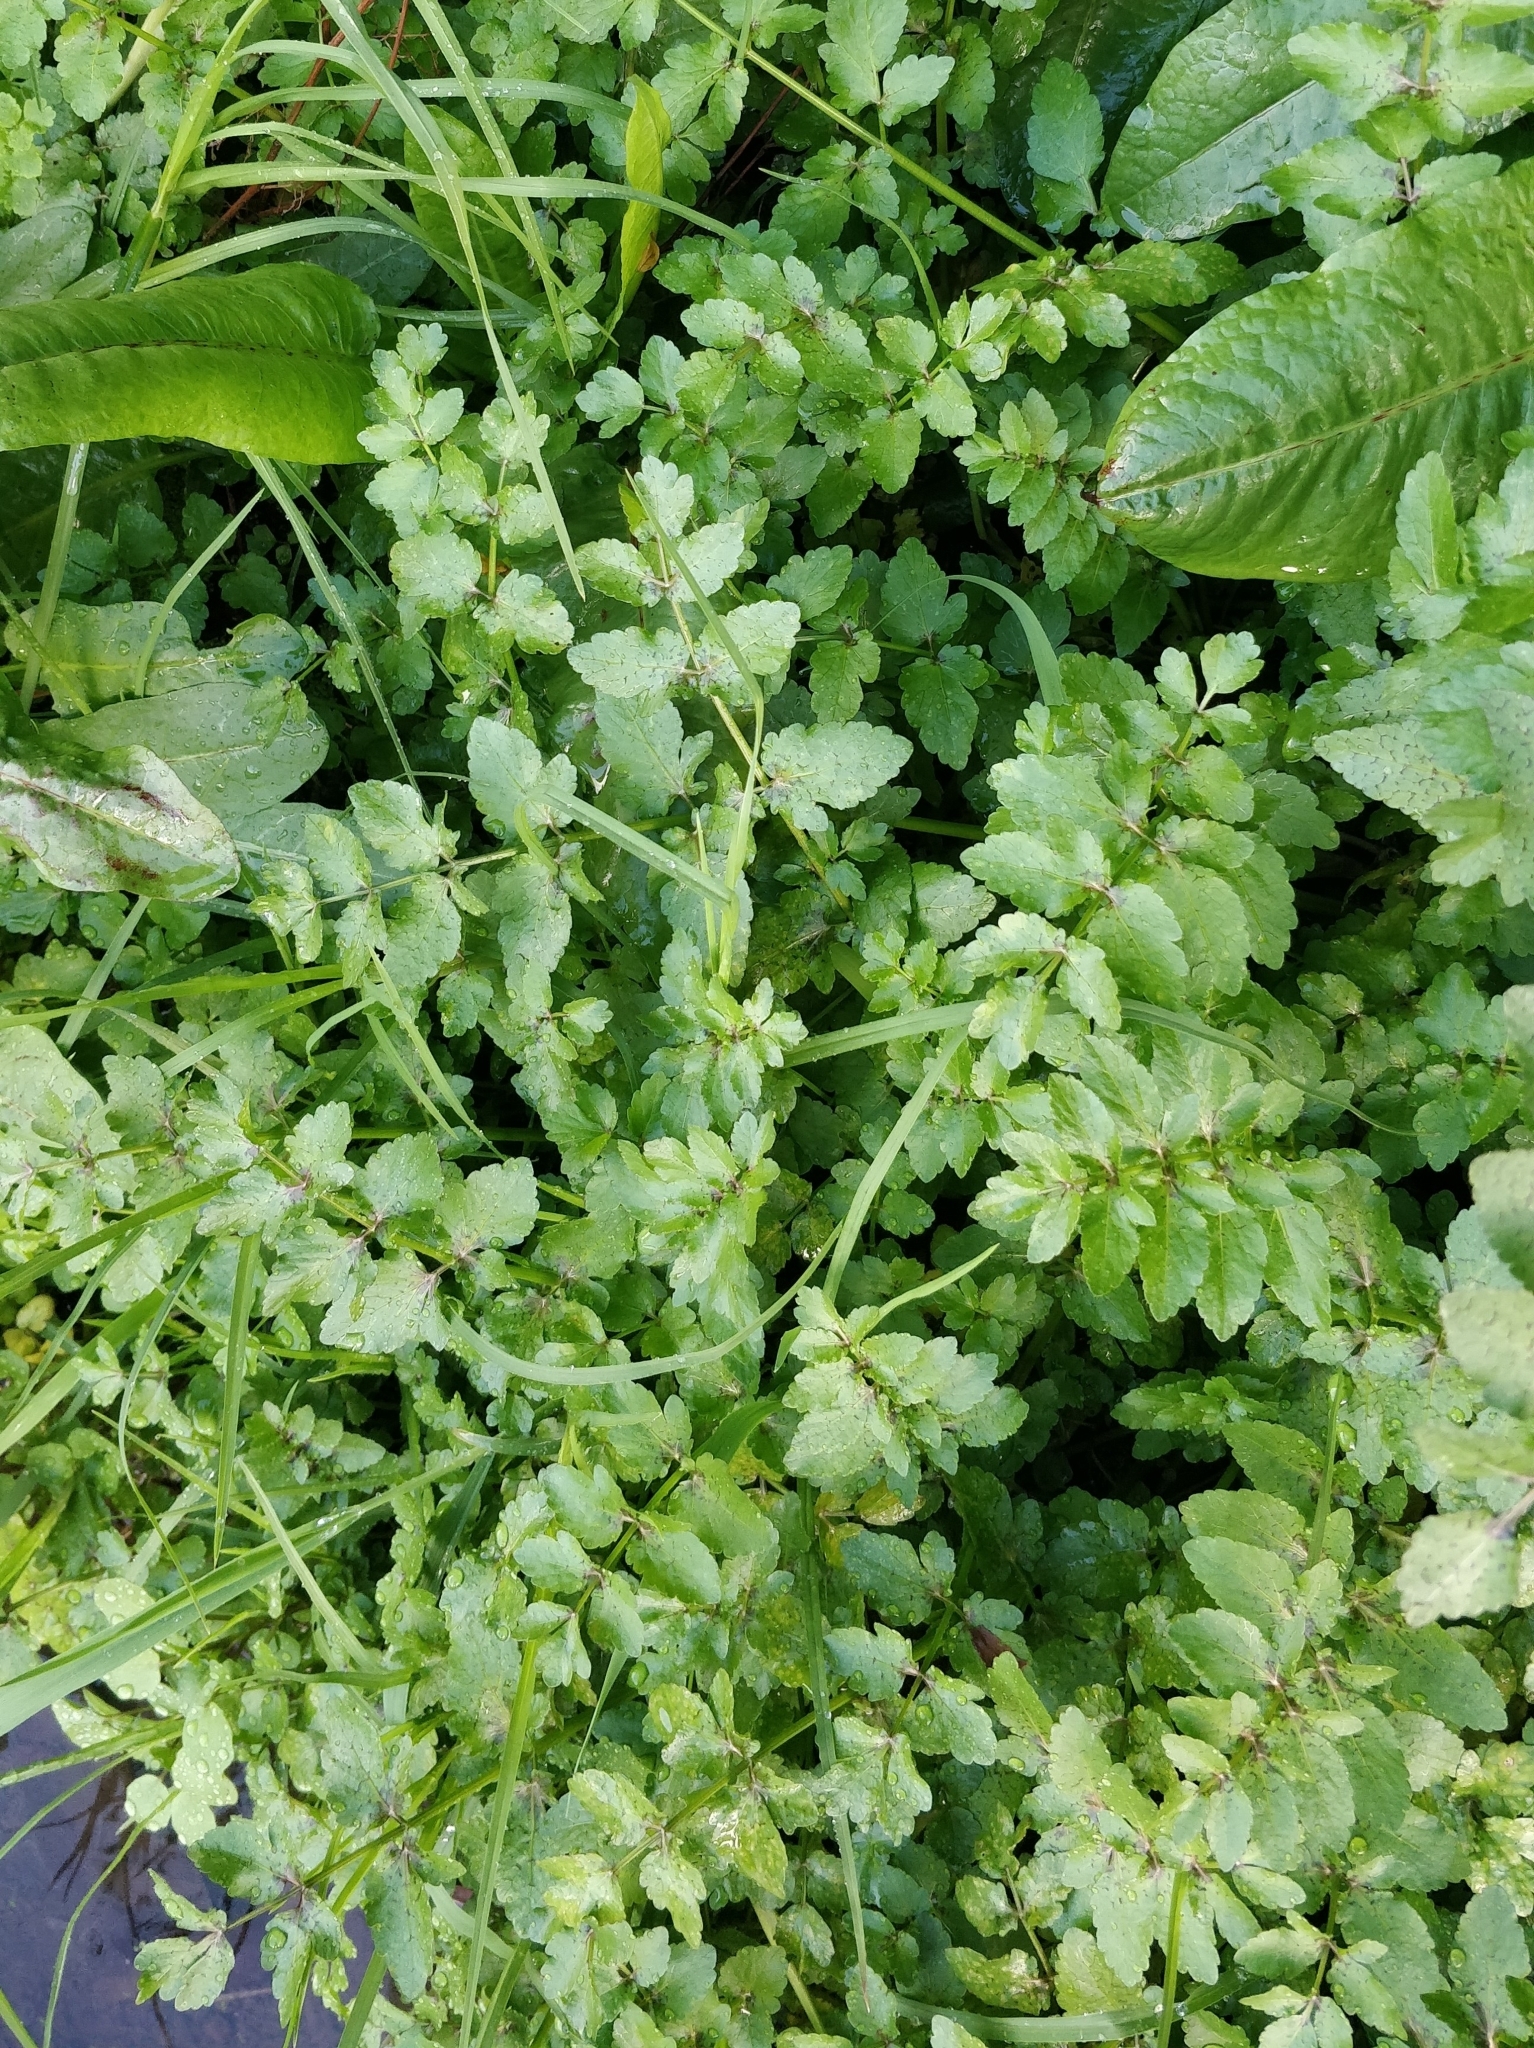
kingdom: Plantae
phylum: Tracheophyta
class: Magnoliopsida
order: Apiales
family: Apiaceae
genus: Helosciadium
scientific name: Helosciadium nodiflorum
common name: Fool's-watercress
